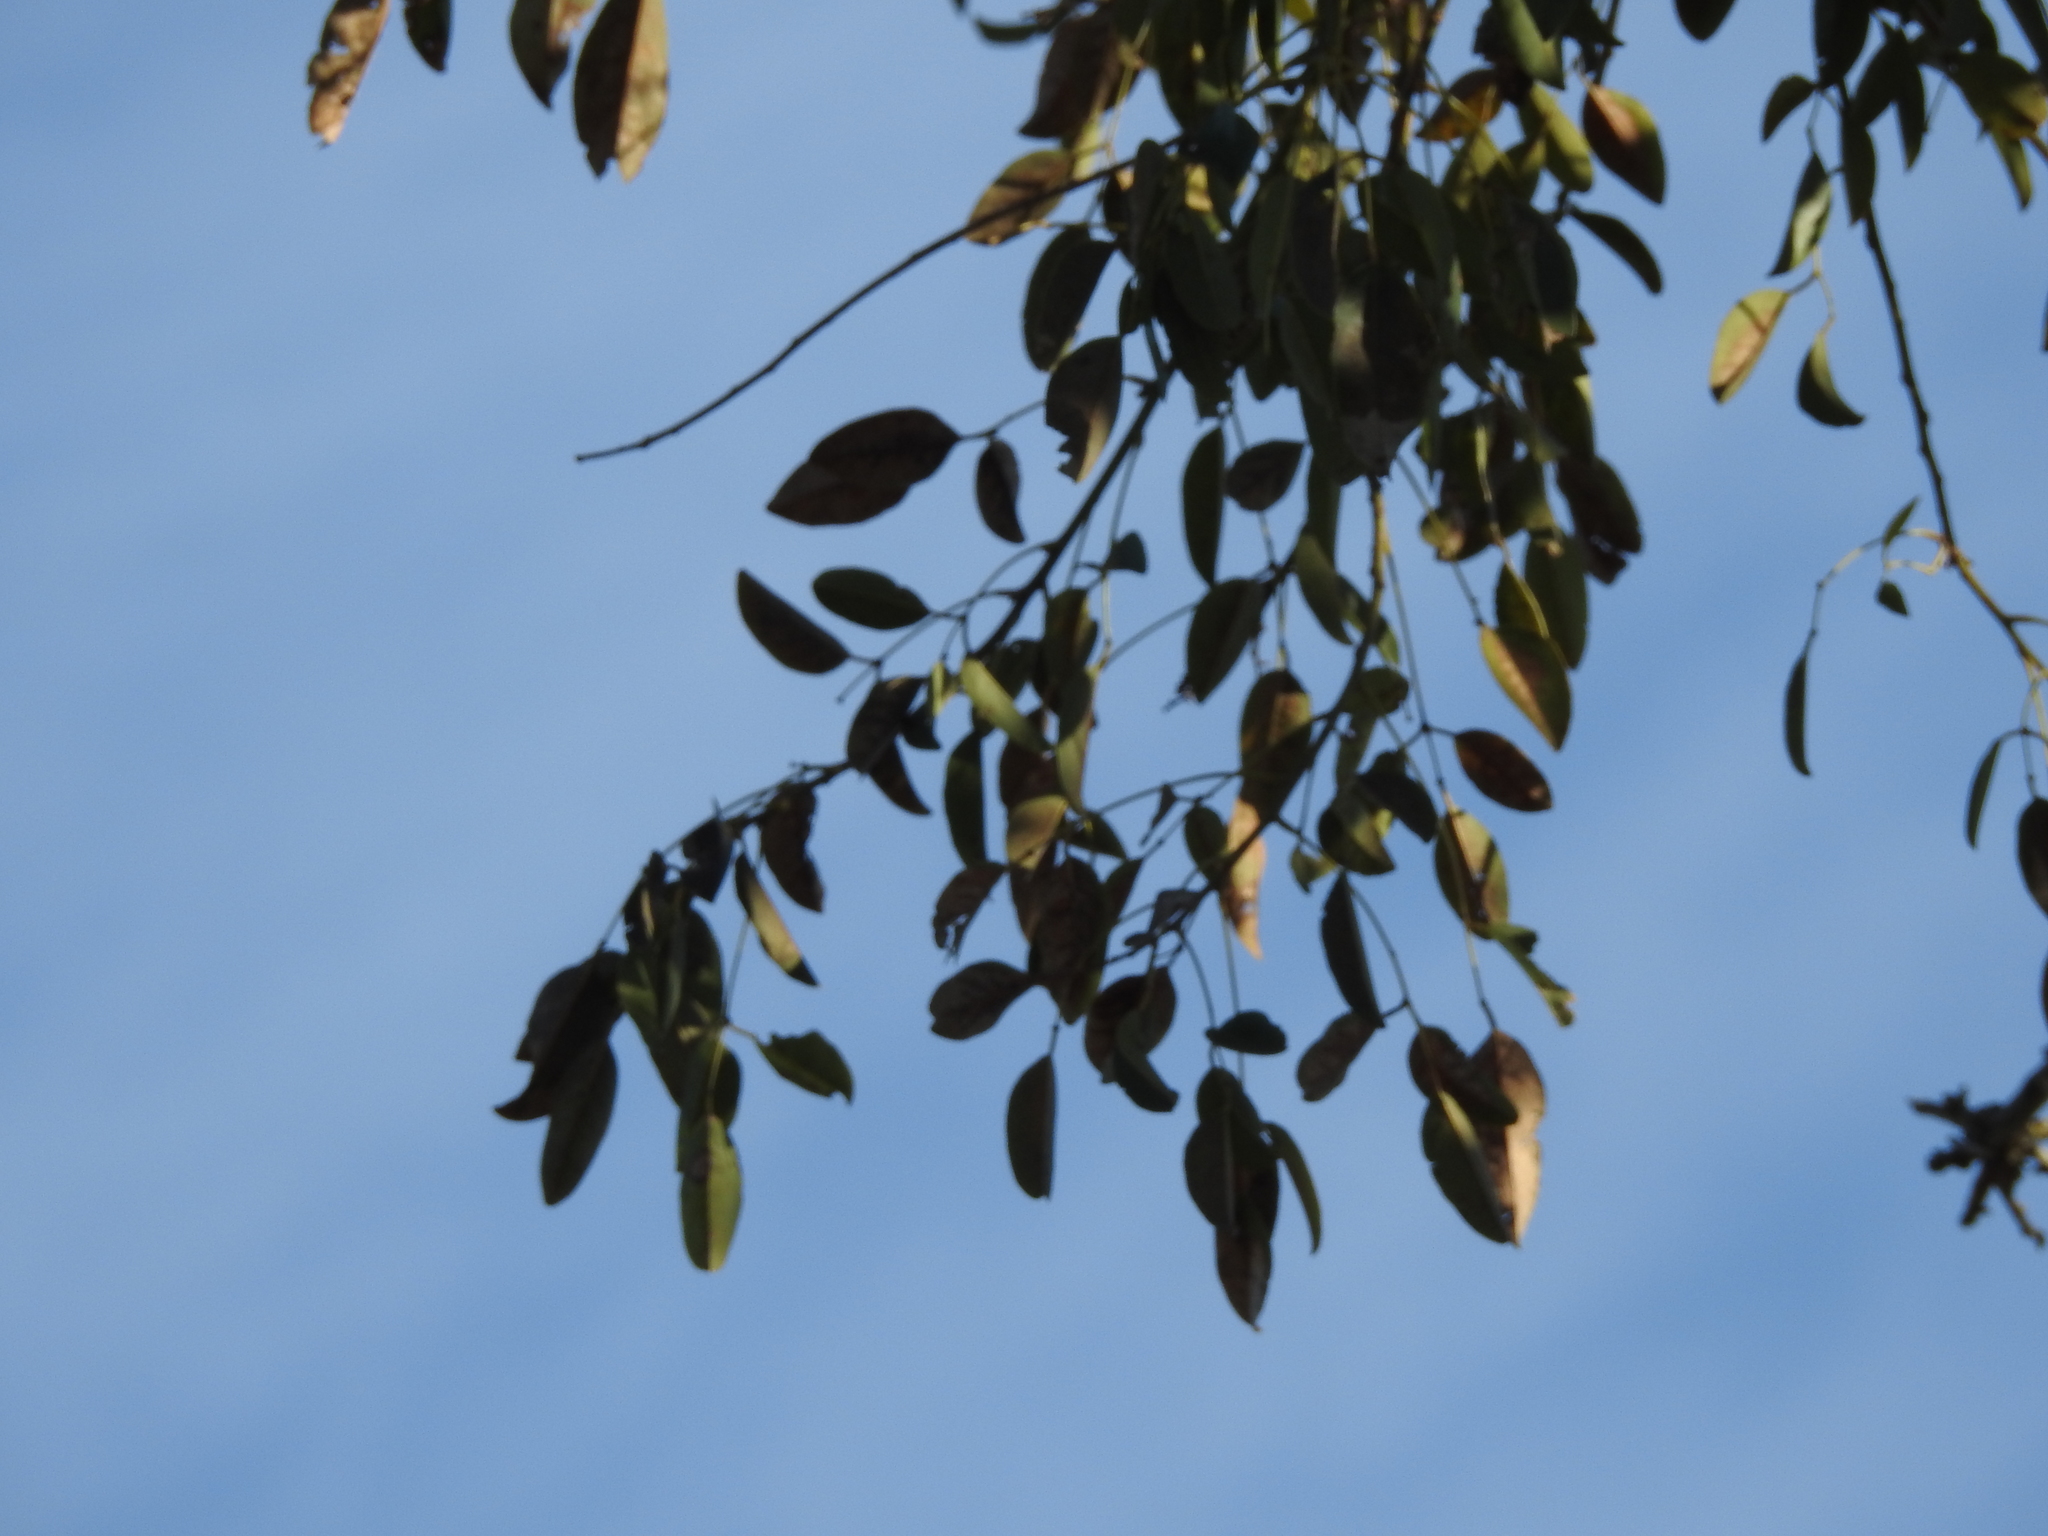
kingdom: Plantae
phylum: Tracheophyta
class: Magnoliopsida
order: Fabales
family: Fabaceae
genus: Erythrina
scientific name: Erythrina crista-galli
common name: Cockspur coral tree
